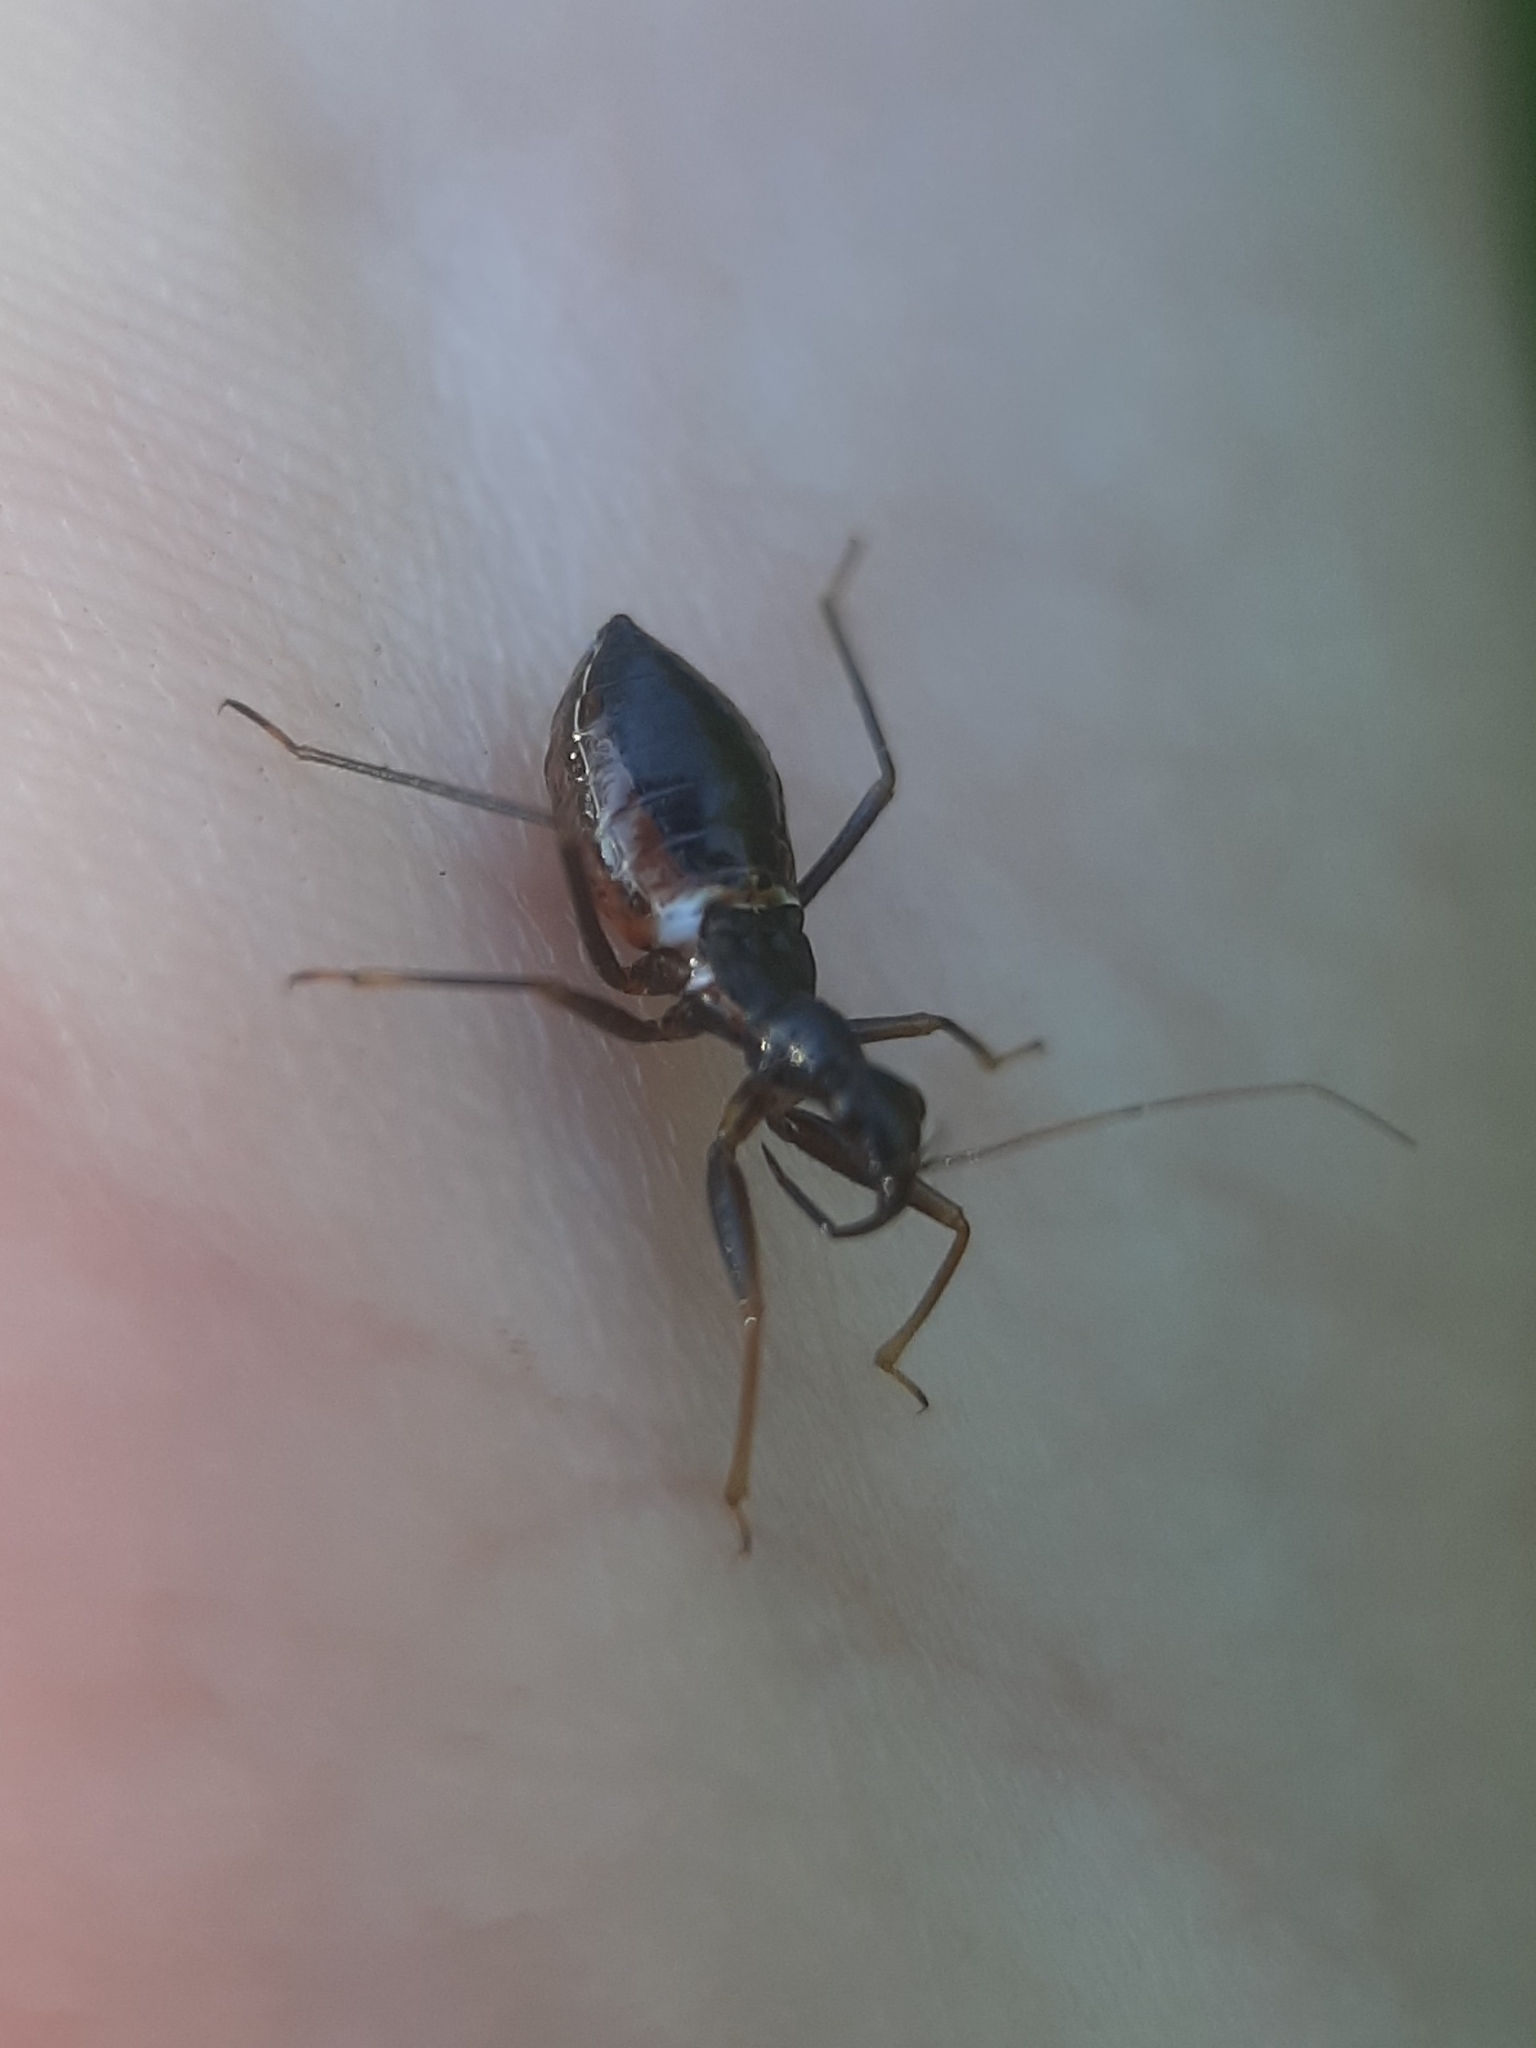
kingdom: Animalia
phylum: Arthropoda
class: Insecta
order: Hemiptera
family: Nabidae
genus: Nabis
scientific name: Nabis
